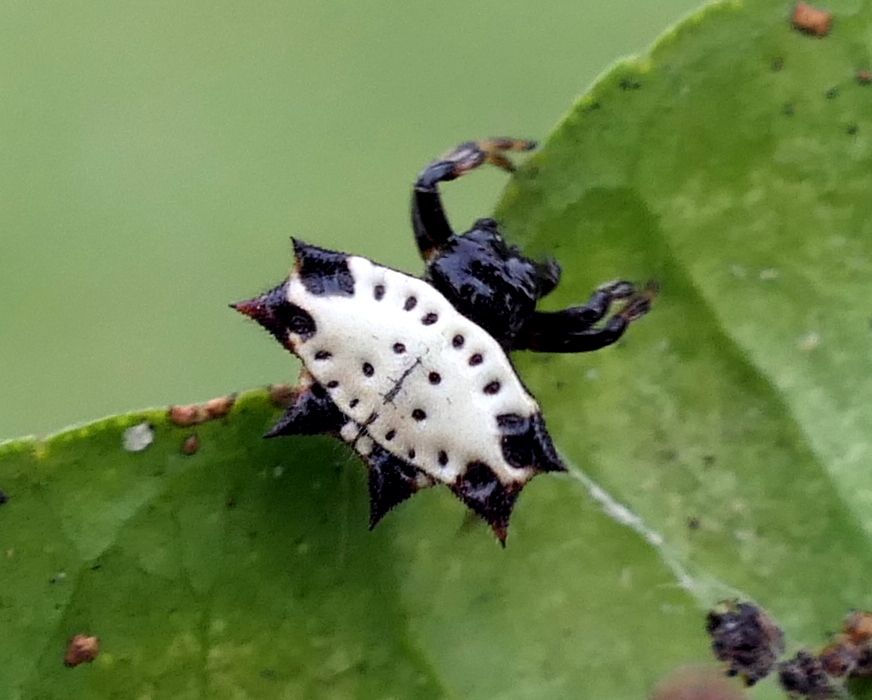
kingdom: Animalia
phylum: Arthropoda
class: Arachnida
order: Araneae
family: Araneidae
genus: Gasteracantha
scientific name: Gasteracantha cancriformis
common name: Orb weavers
